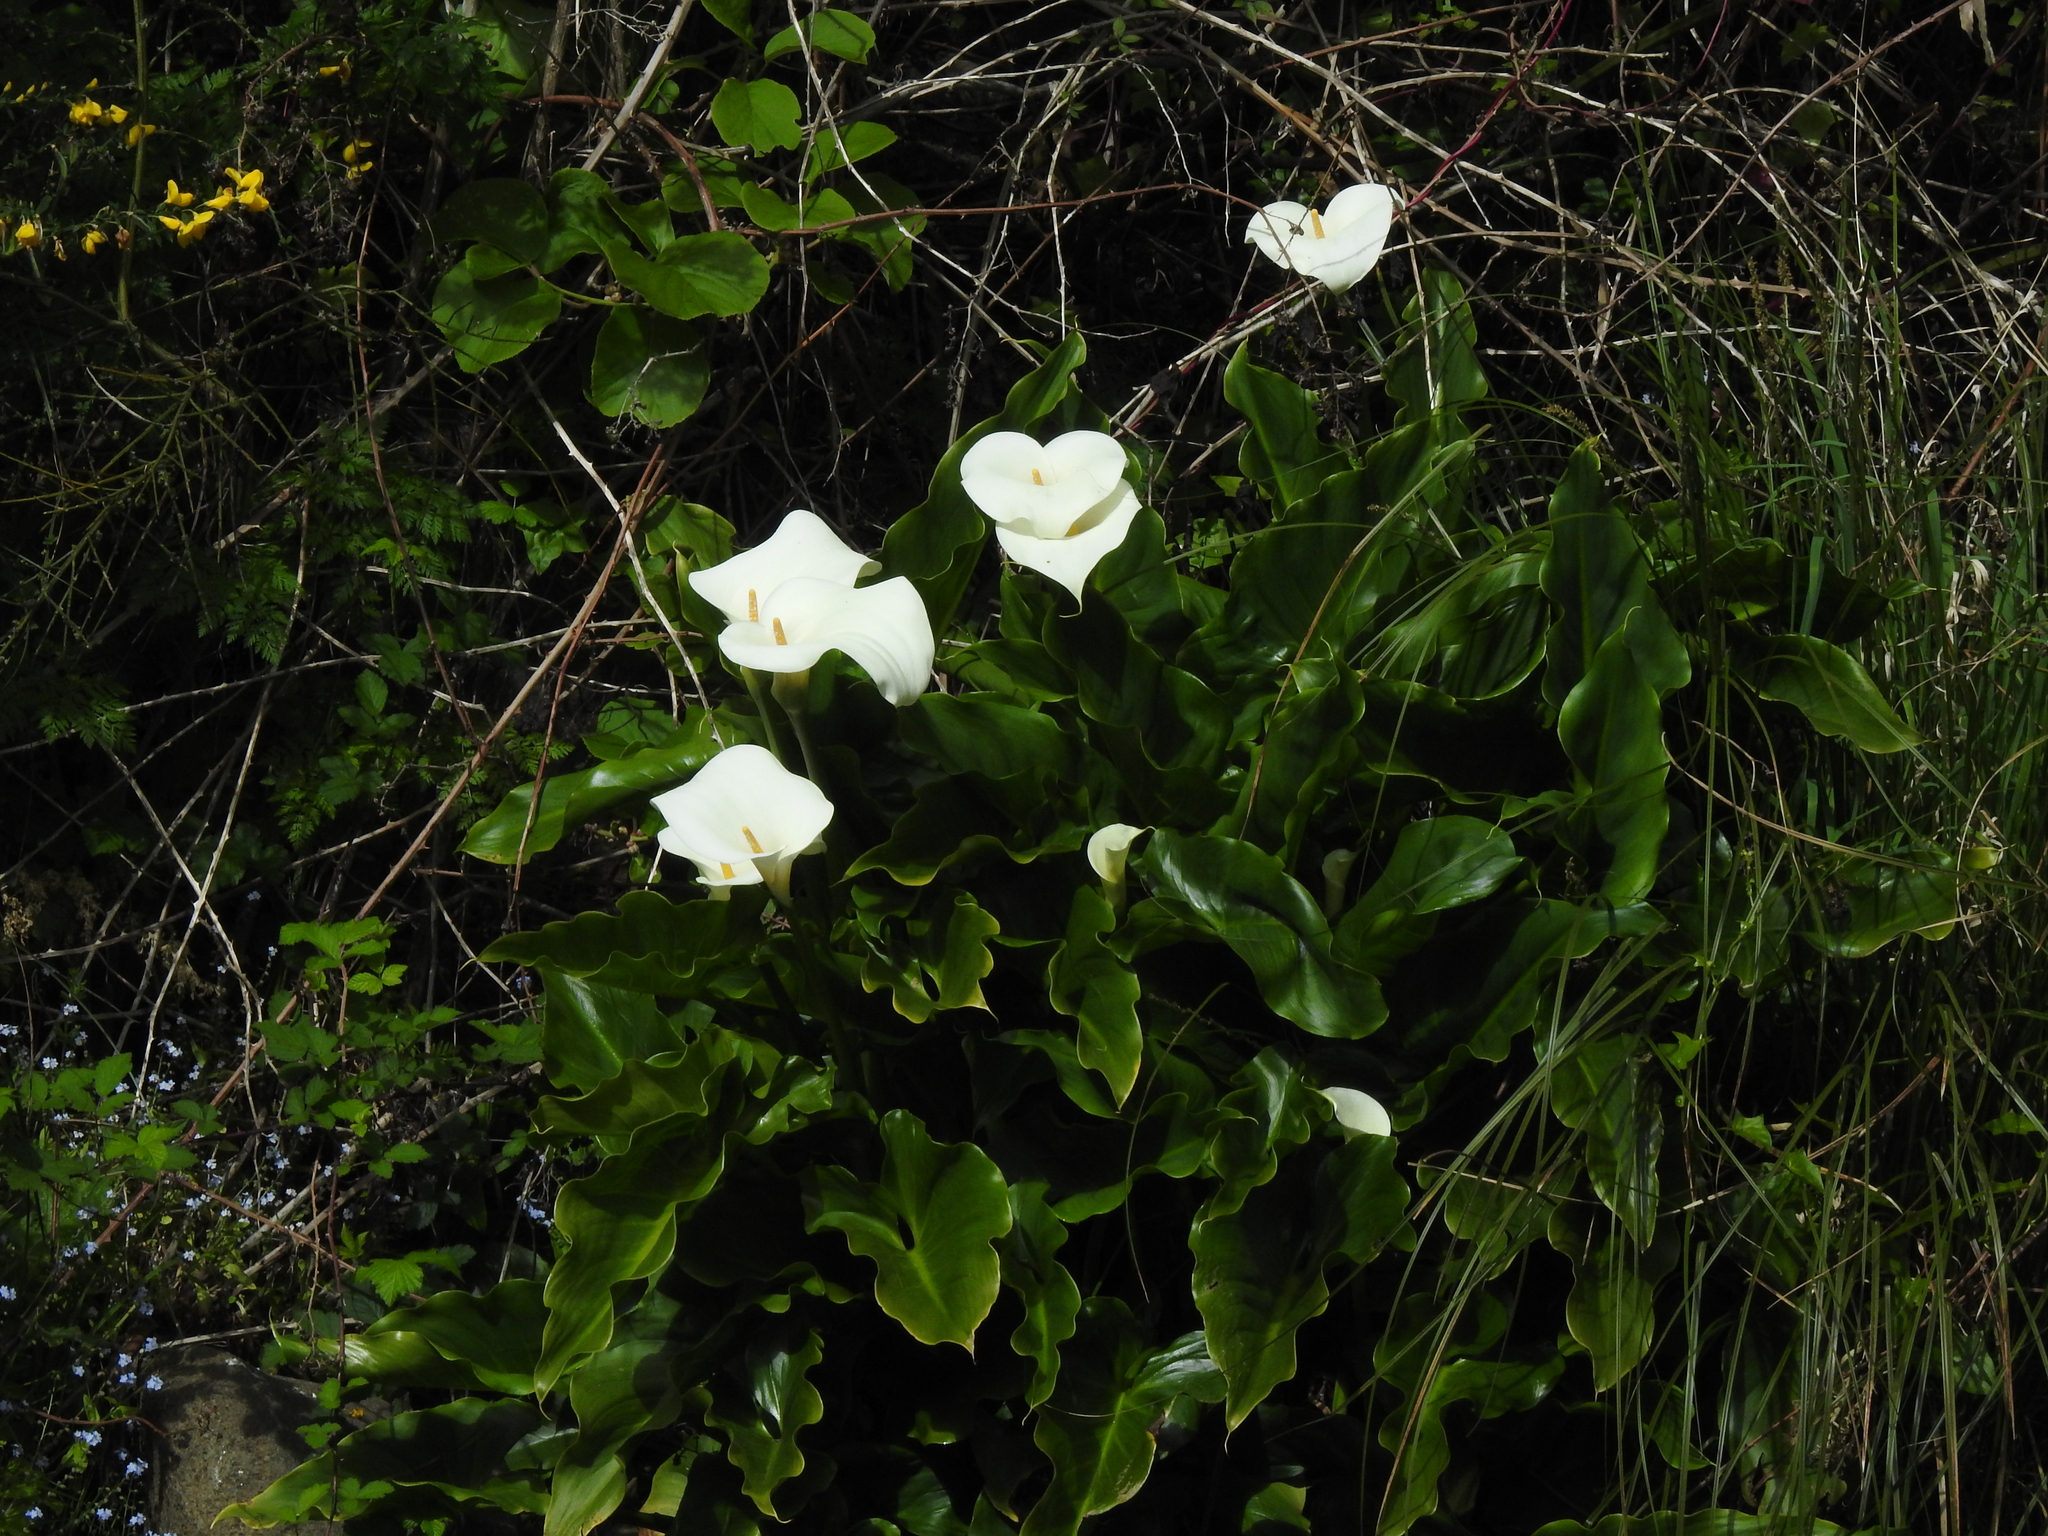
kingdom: Plantae
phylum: Tracheophyta
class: Liliopsida
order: Alismatales
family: Araceae
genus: Zantedeschia
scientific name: Zantedeschia aethiopica
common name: Altar-lily
